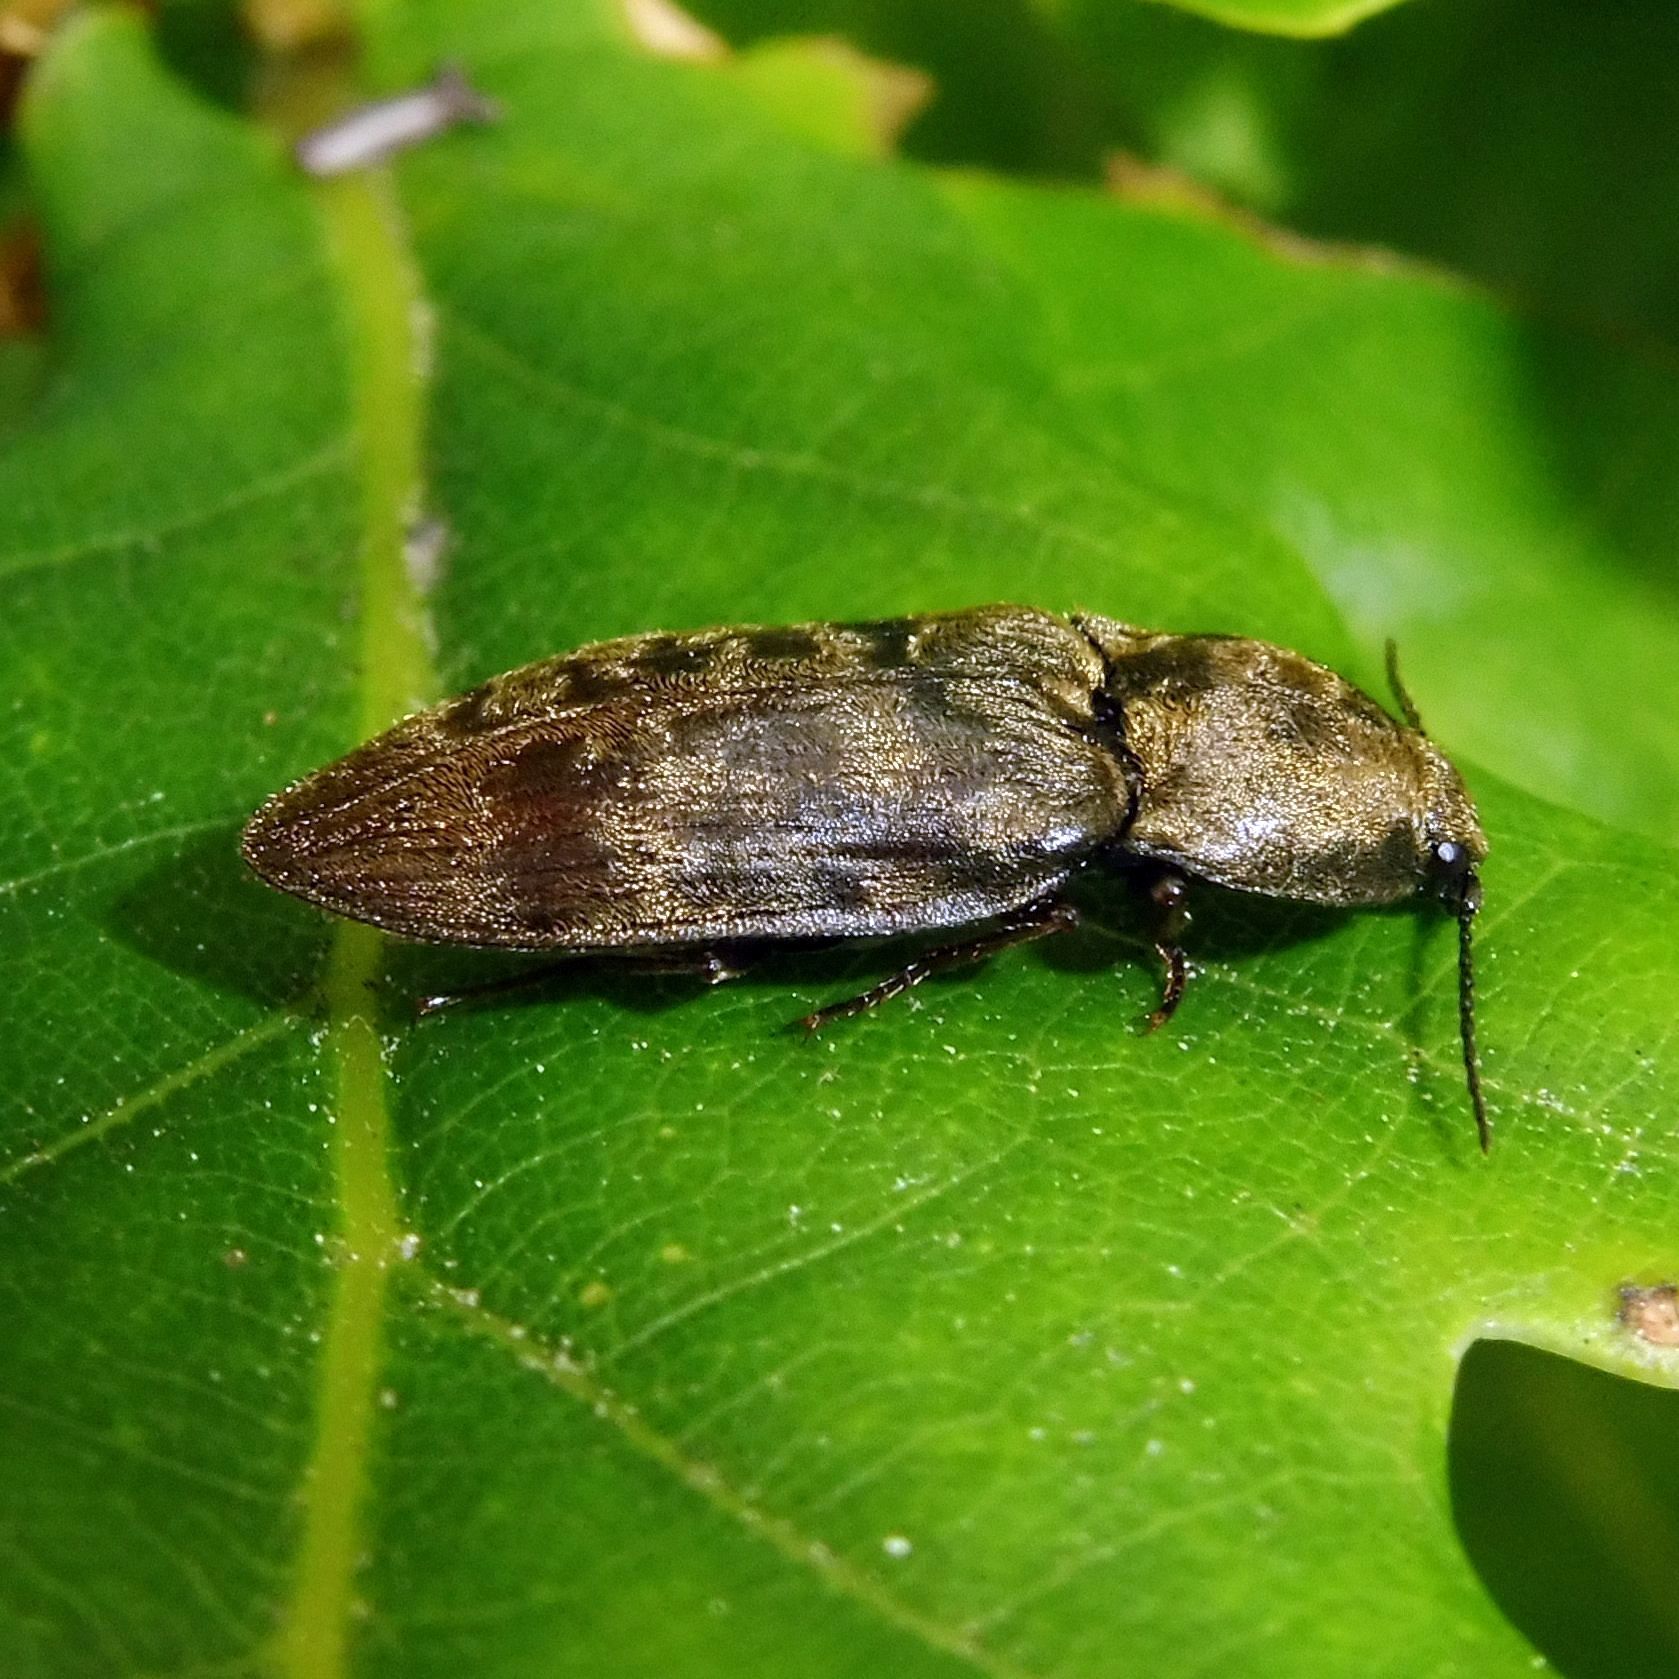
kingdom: Animalia
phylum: Arthropoda
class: Insecta
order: Coleoptera
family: Elateridae
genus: Prosternon
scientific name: Prosternon tessellatum
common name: Chequered click beetle
